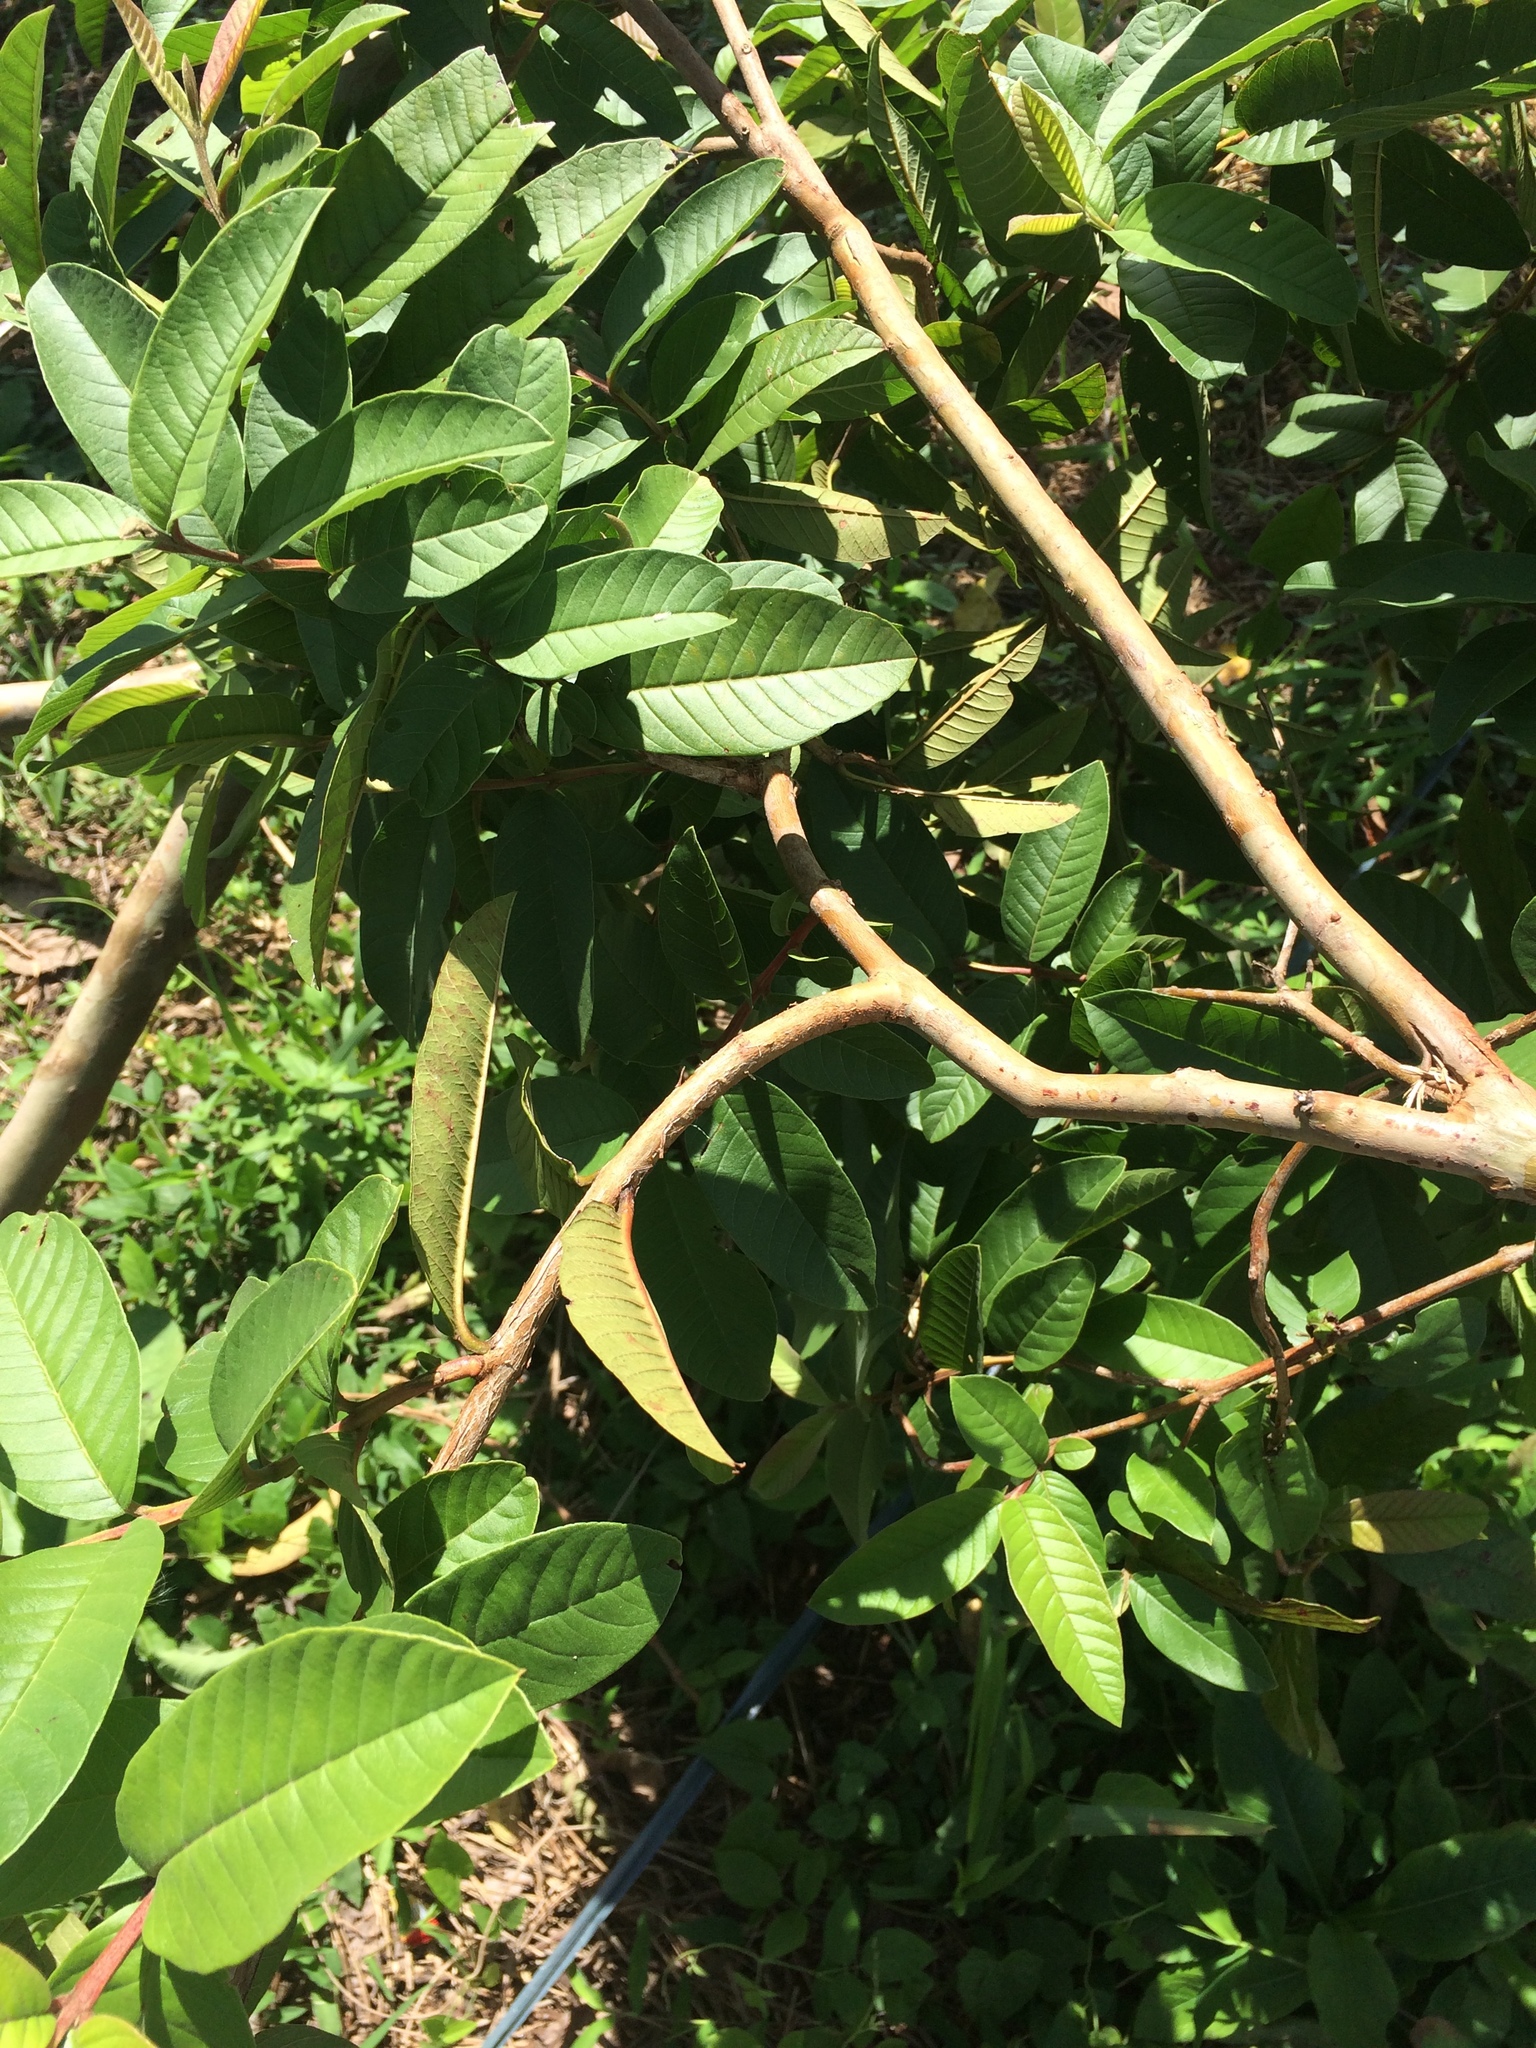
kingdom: Plantae
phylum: Tracheophyta
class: Magnoliopsida
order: Myrtales
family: Myrtaceae
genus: Psidium
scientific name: Psidium guajava
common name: Guava
